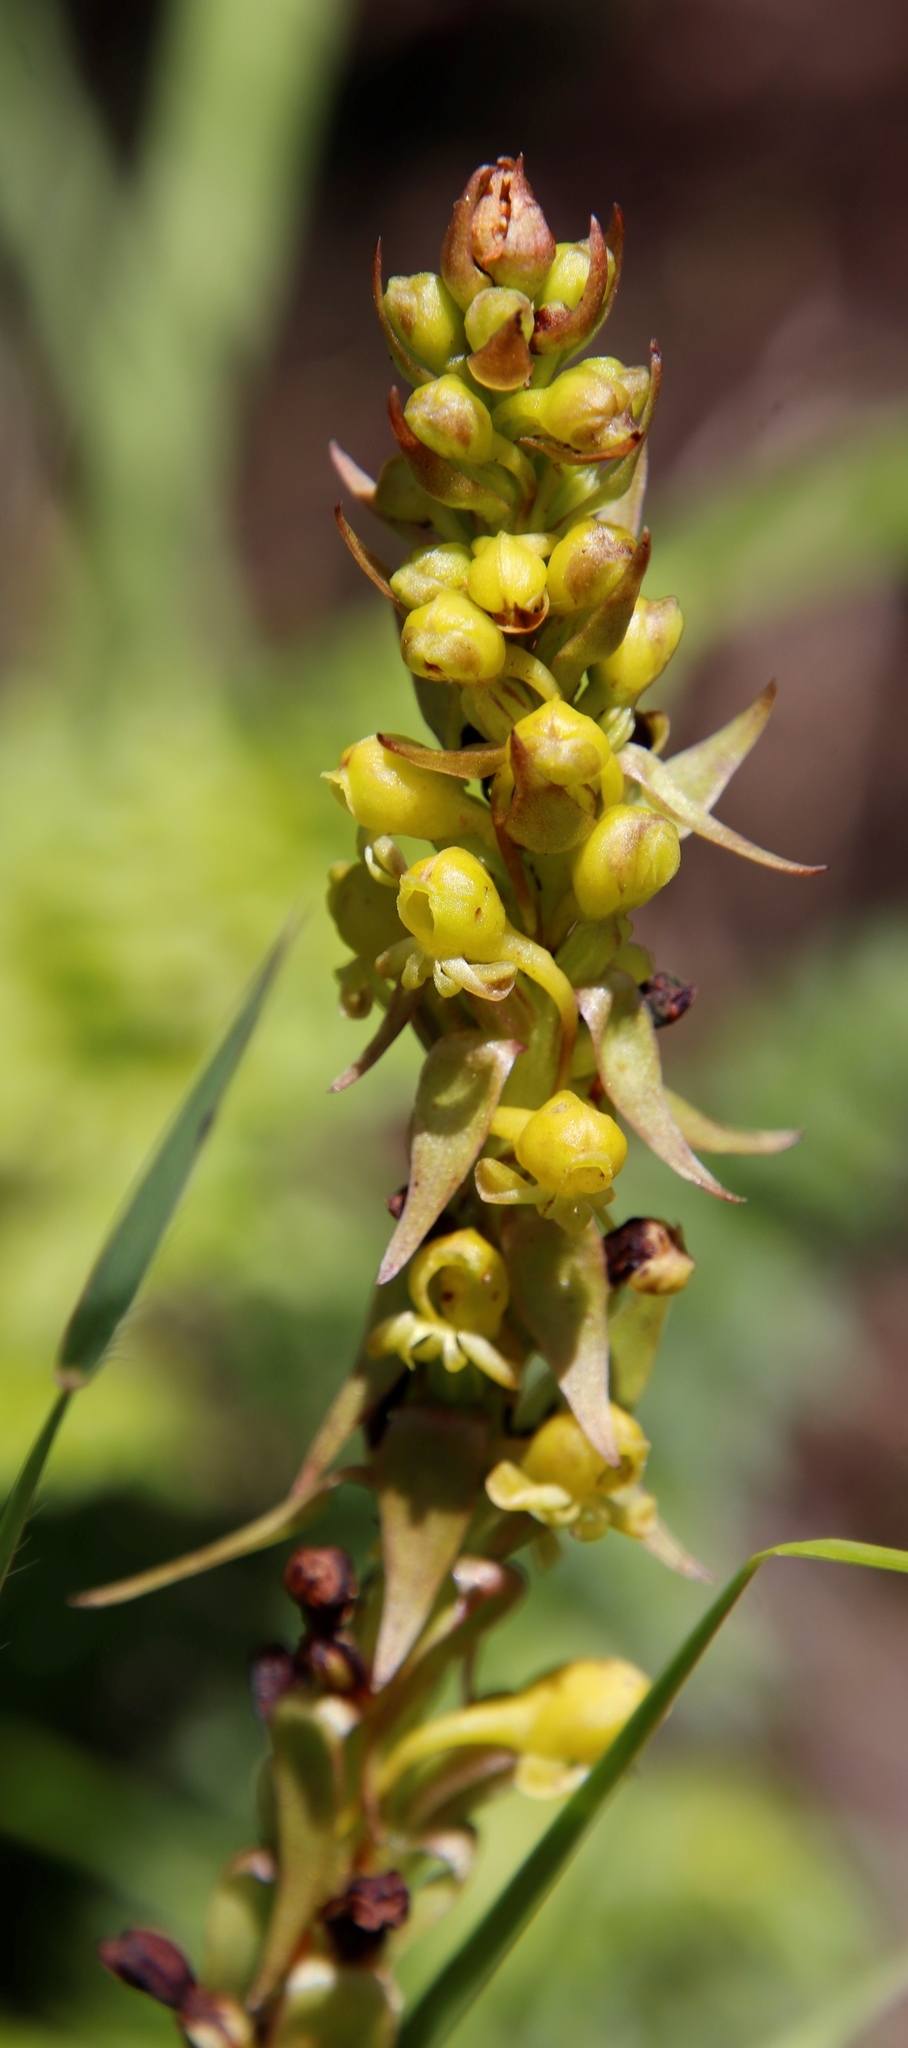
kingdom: Plantae
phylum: Tracheophyta
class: Liliopsida
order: Asparagales
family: Orchidaceae
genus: Satyrium
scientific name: Satyrium parviflorum
